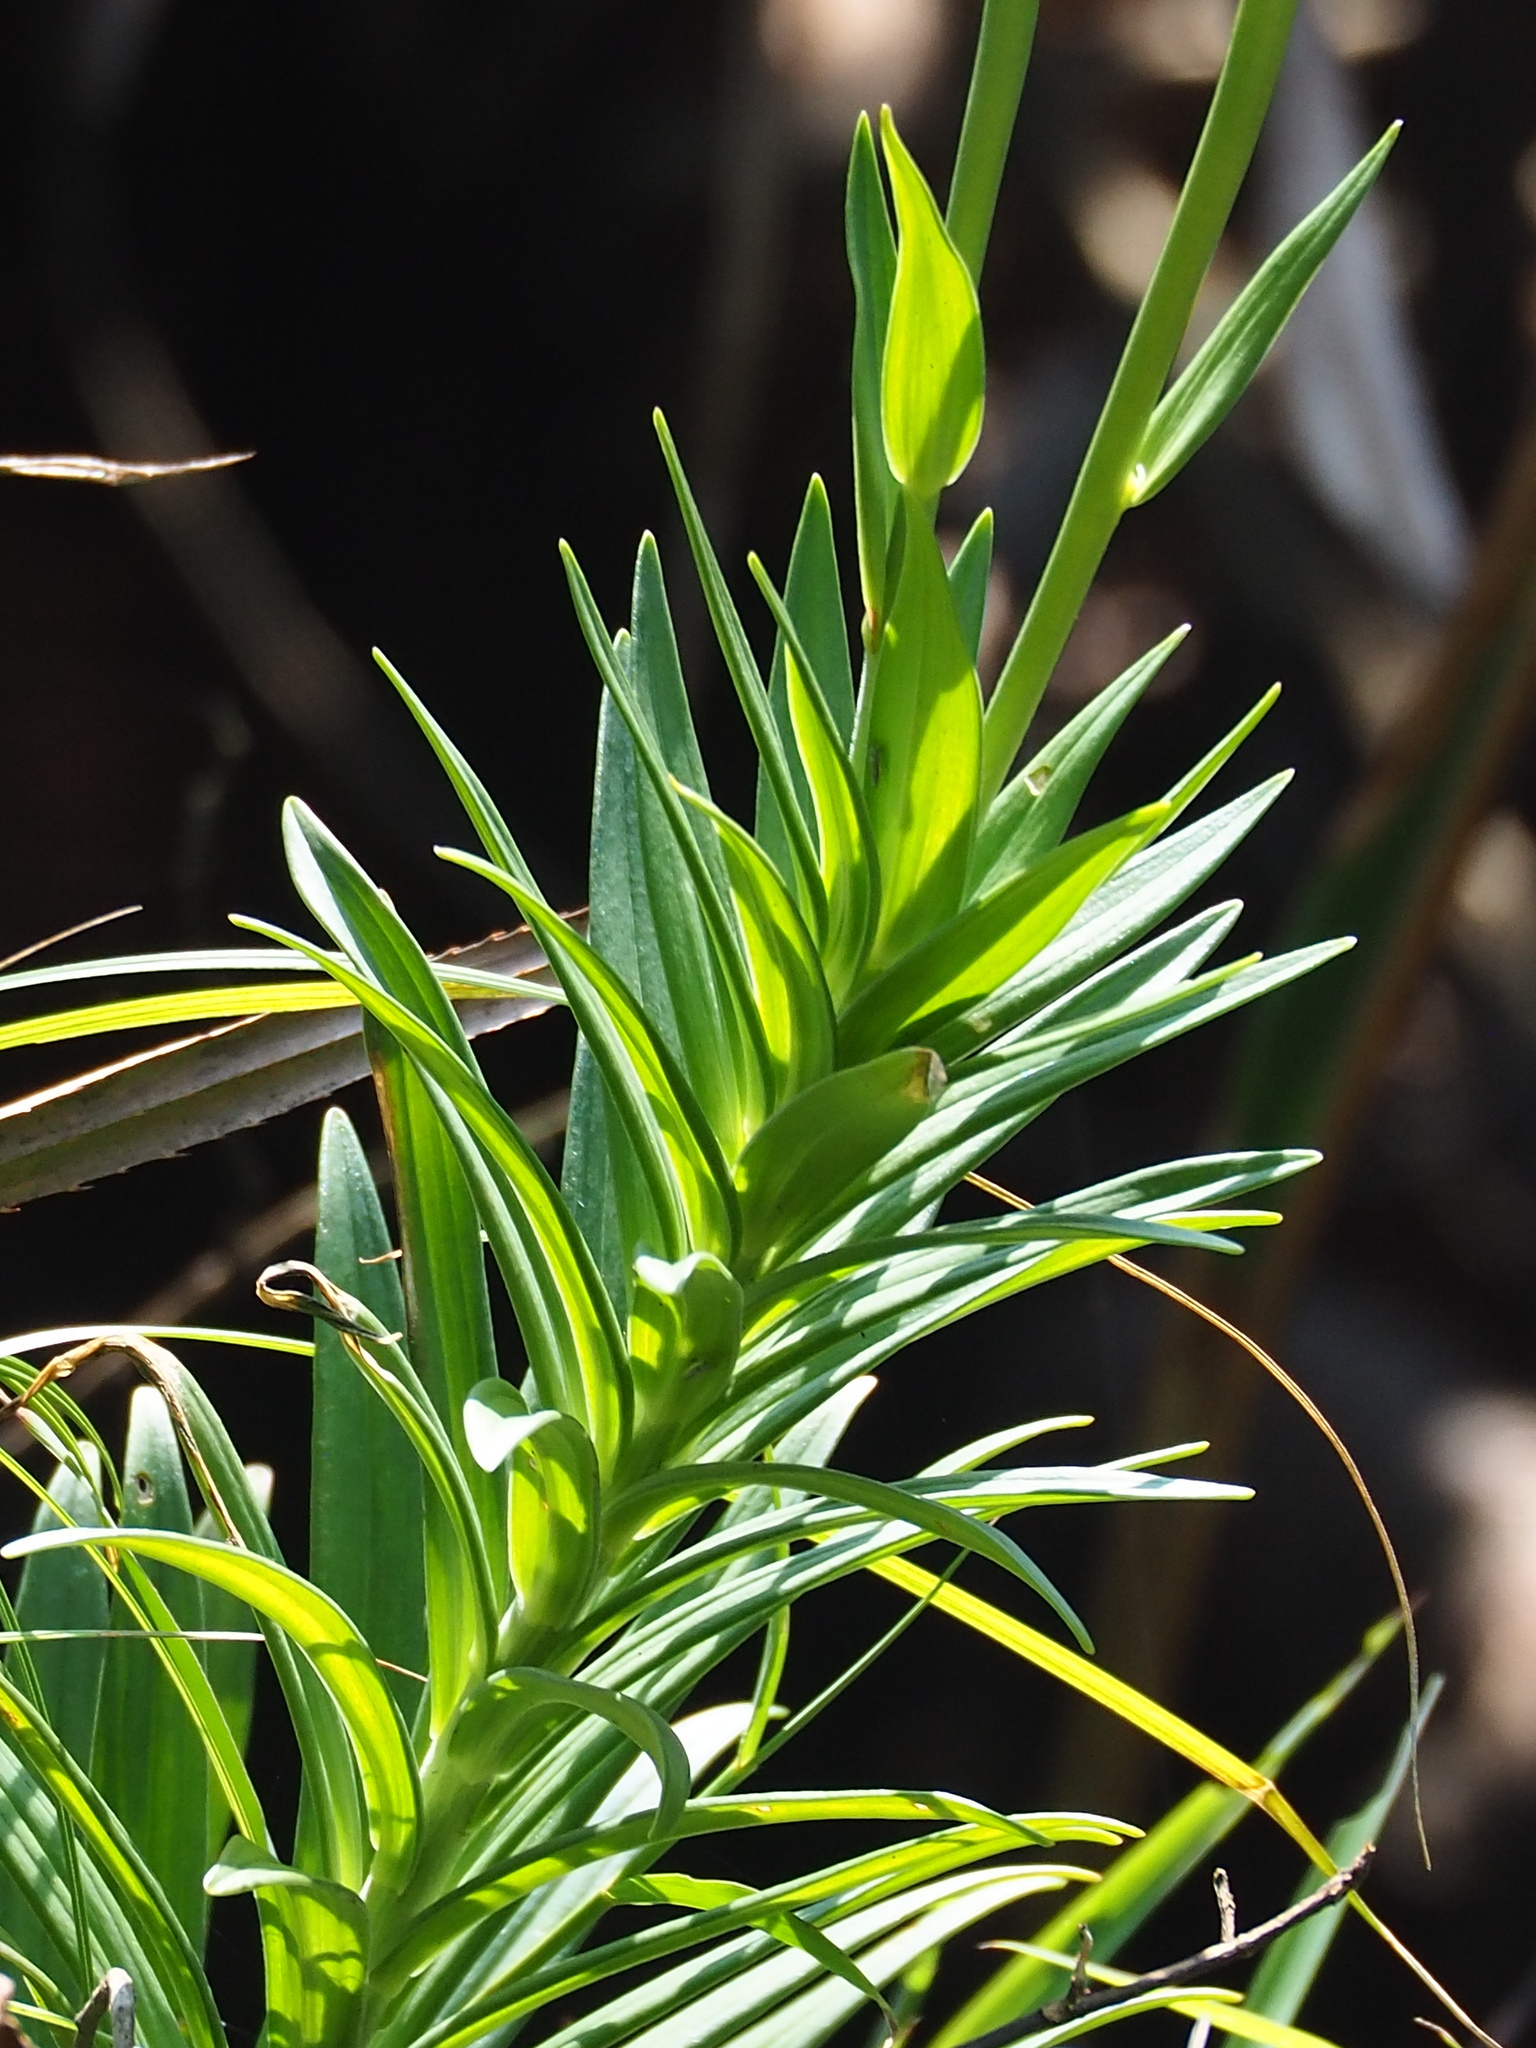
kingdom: Plantae
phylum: Tracheophyta
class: Liliopsida
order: Liliales
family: Liliaceae
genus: Lilium
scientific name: Lilium longiflorum
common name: Easter lily
